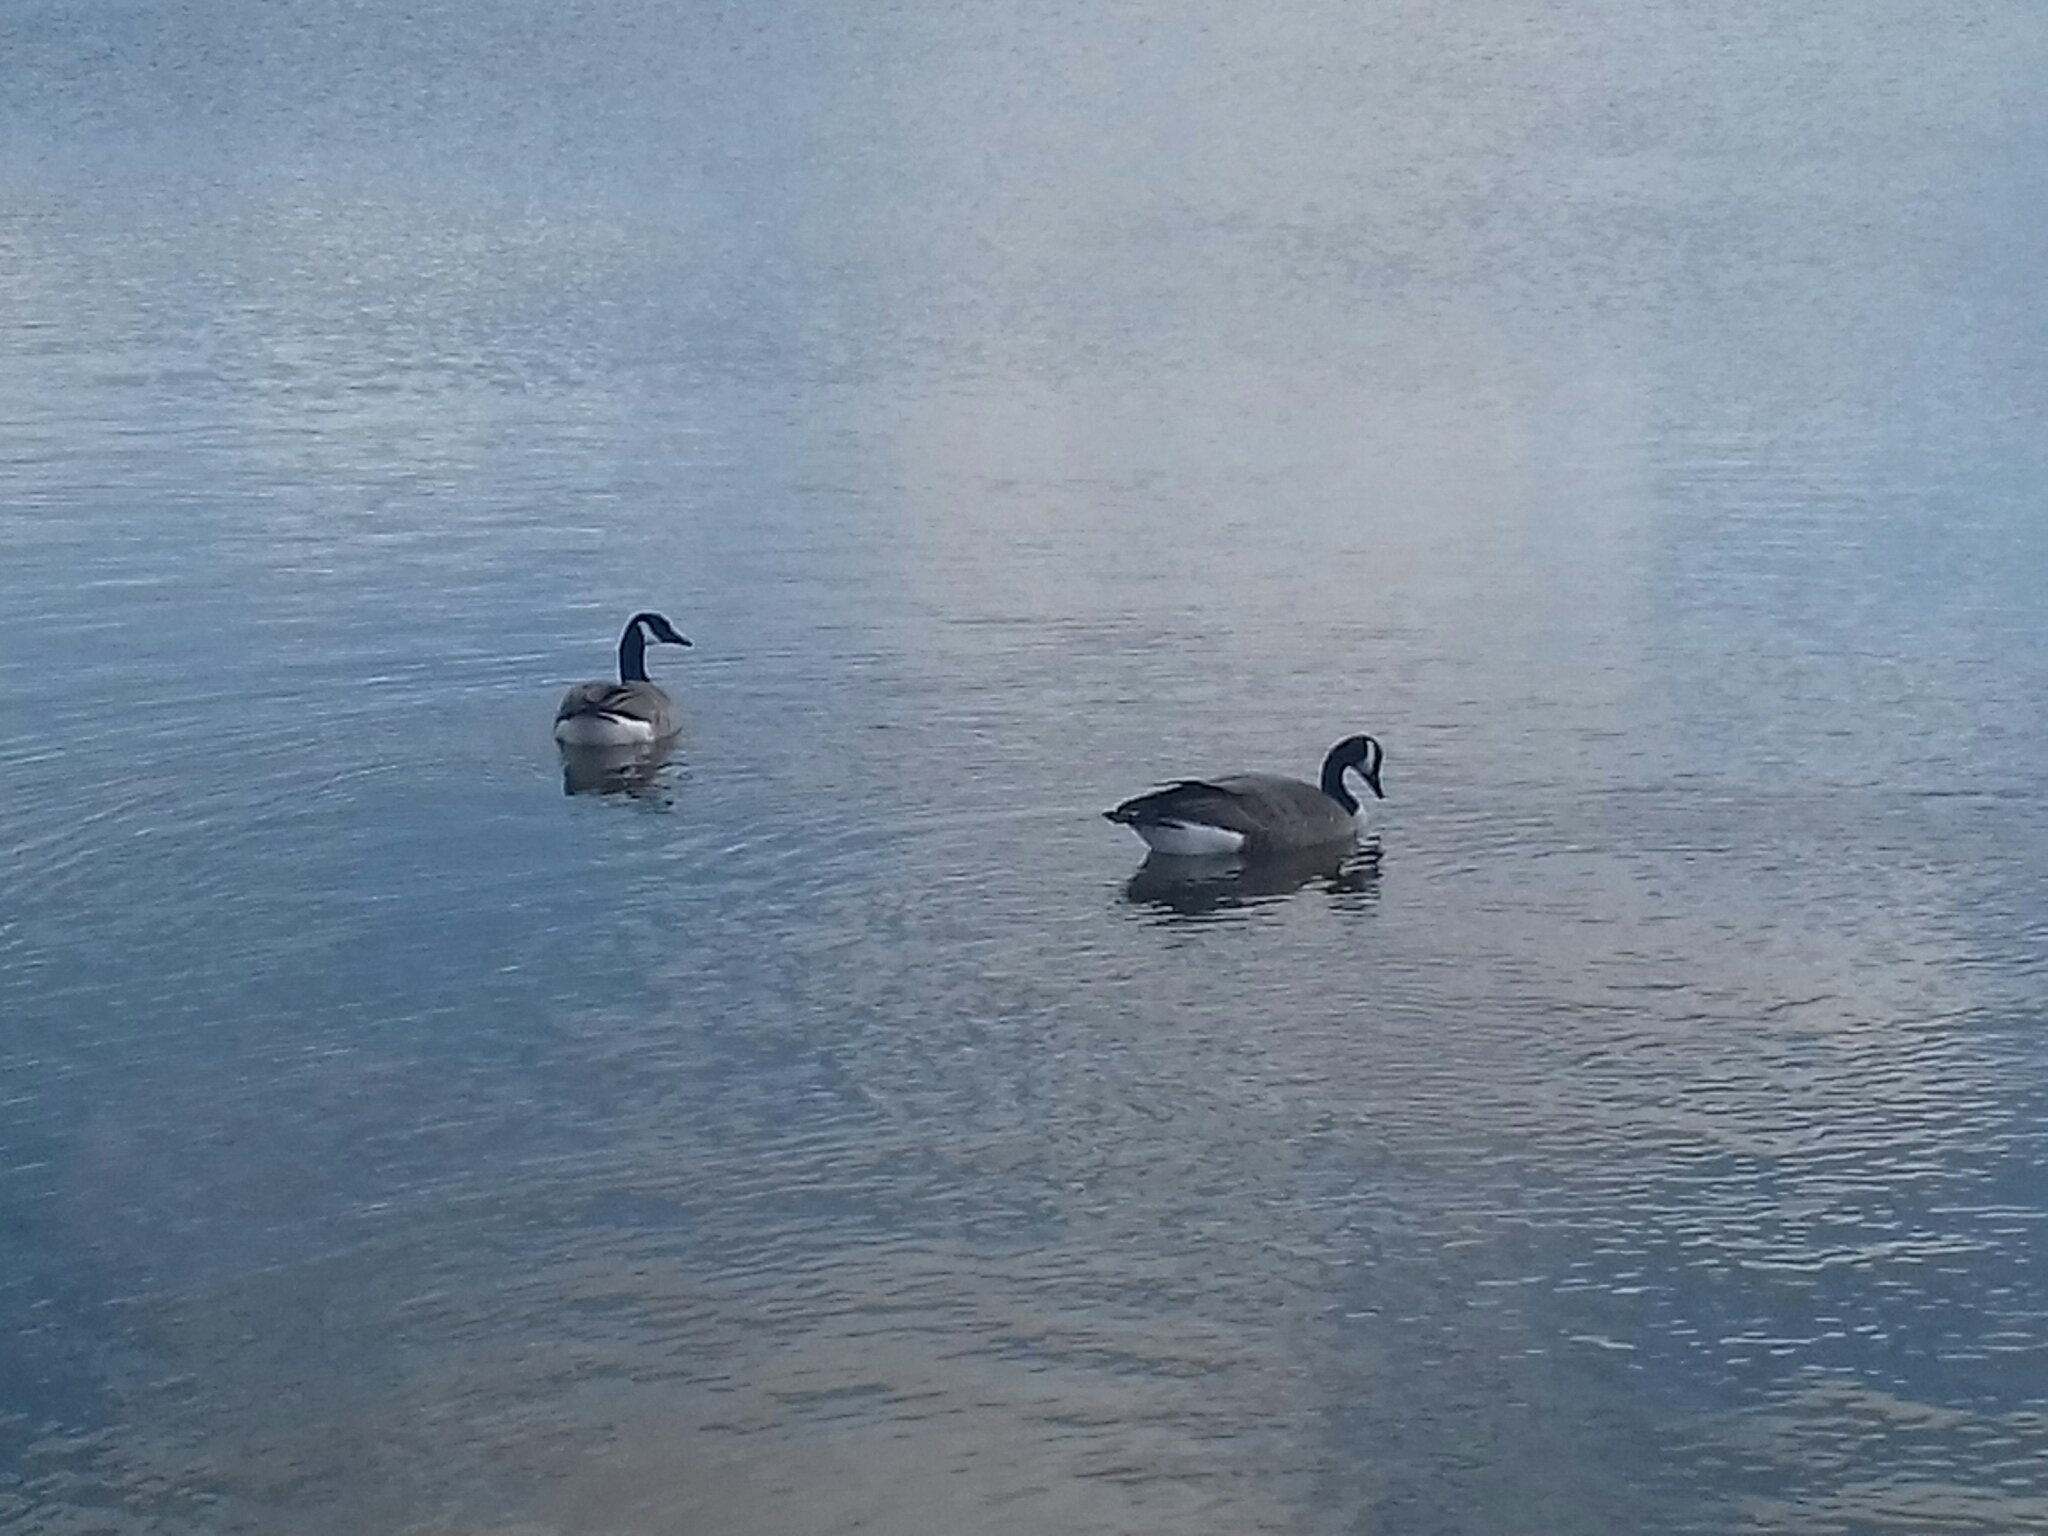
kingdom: Animalia
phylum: Chordata
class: Aves
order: Anseriformes
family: Anatidae
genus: Branta
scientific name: Branta canadensis
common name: Canada goose
